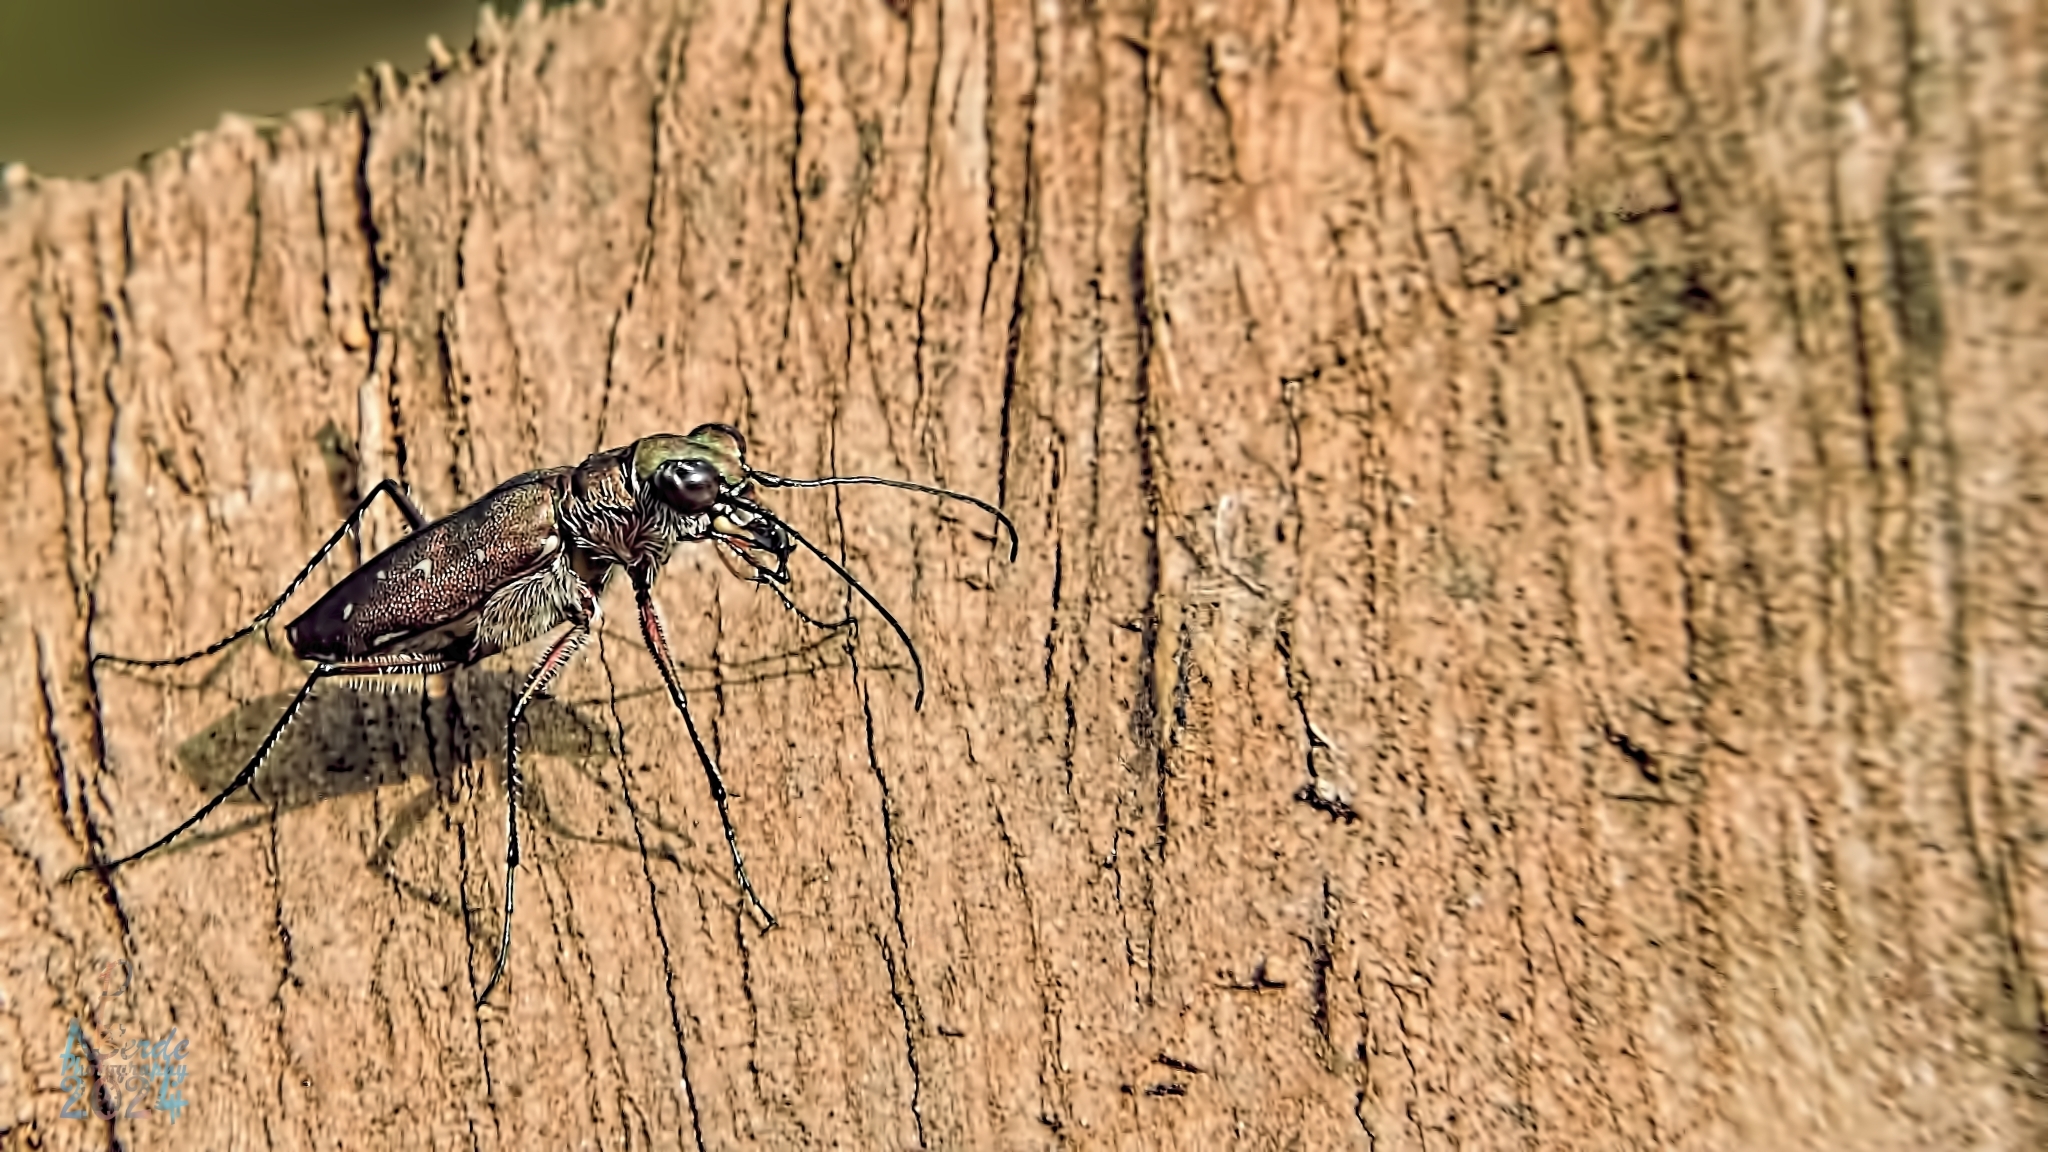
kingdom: Animalia
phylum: Arthropoda
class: Insecta
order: Coleoptera
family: Carabidae
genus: Cicindela
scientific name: Cicindela fowleri
